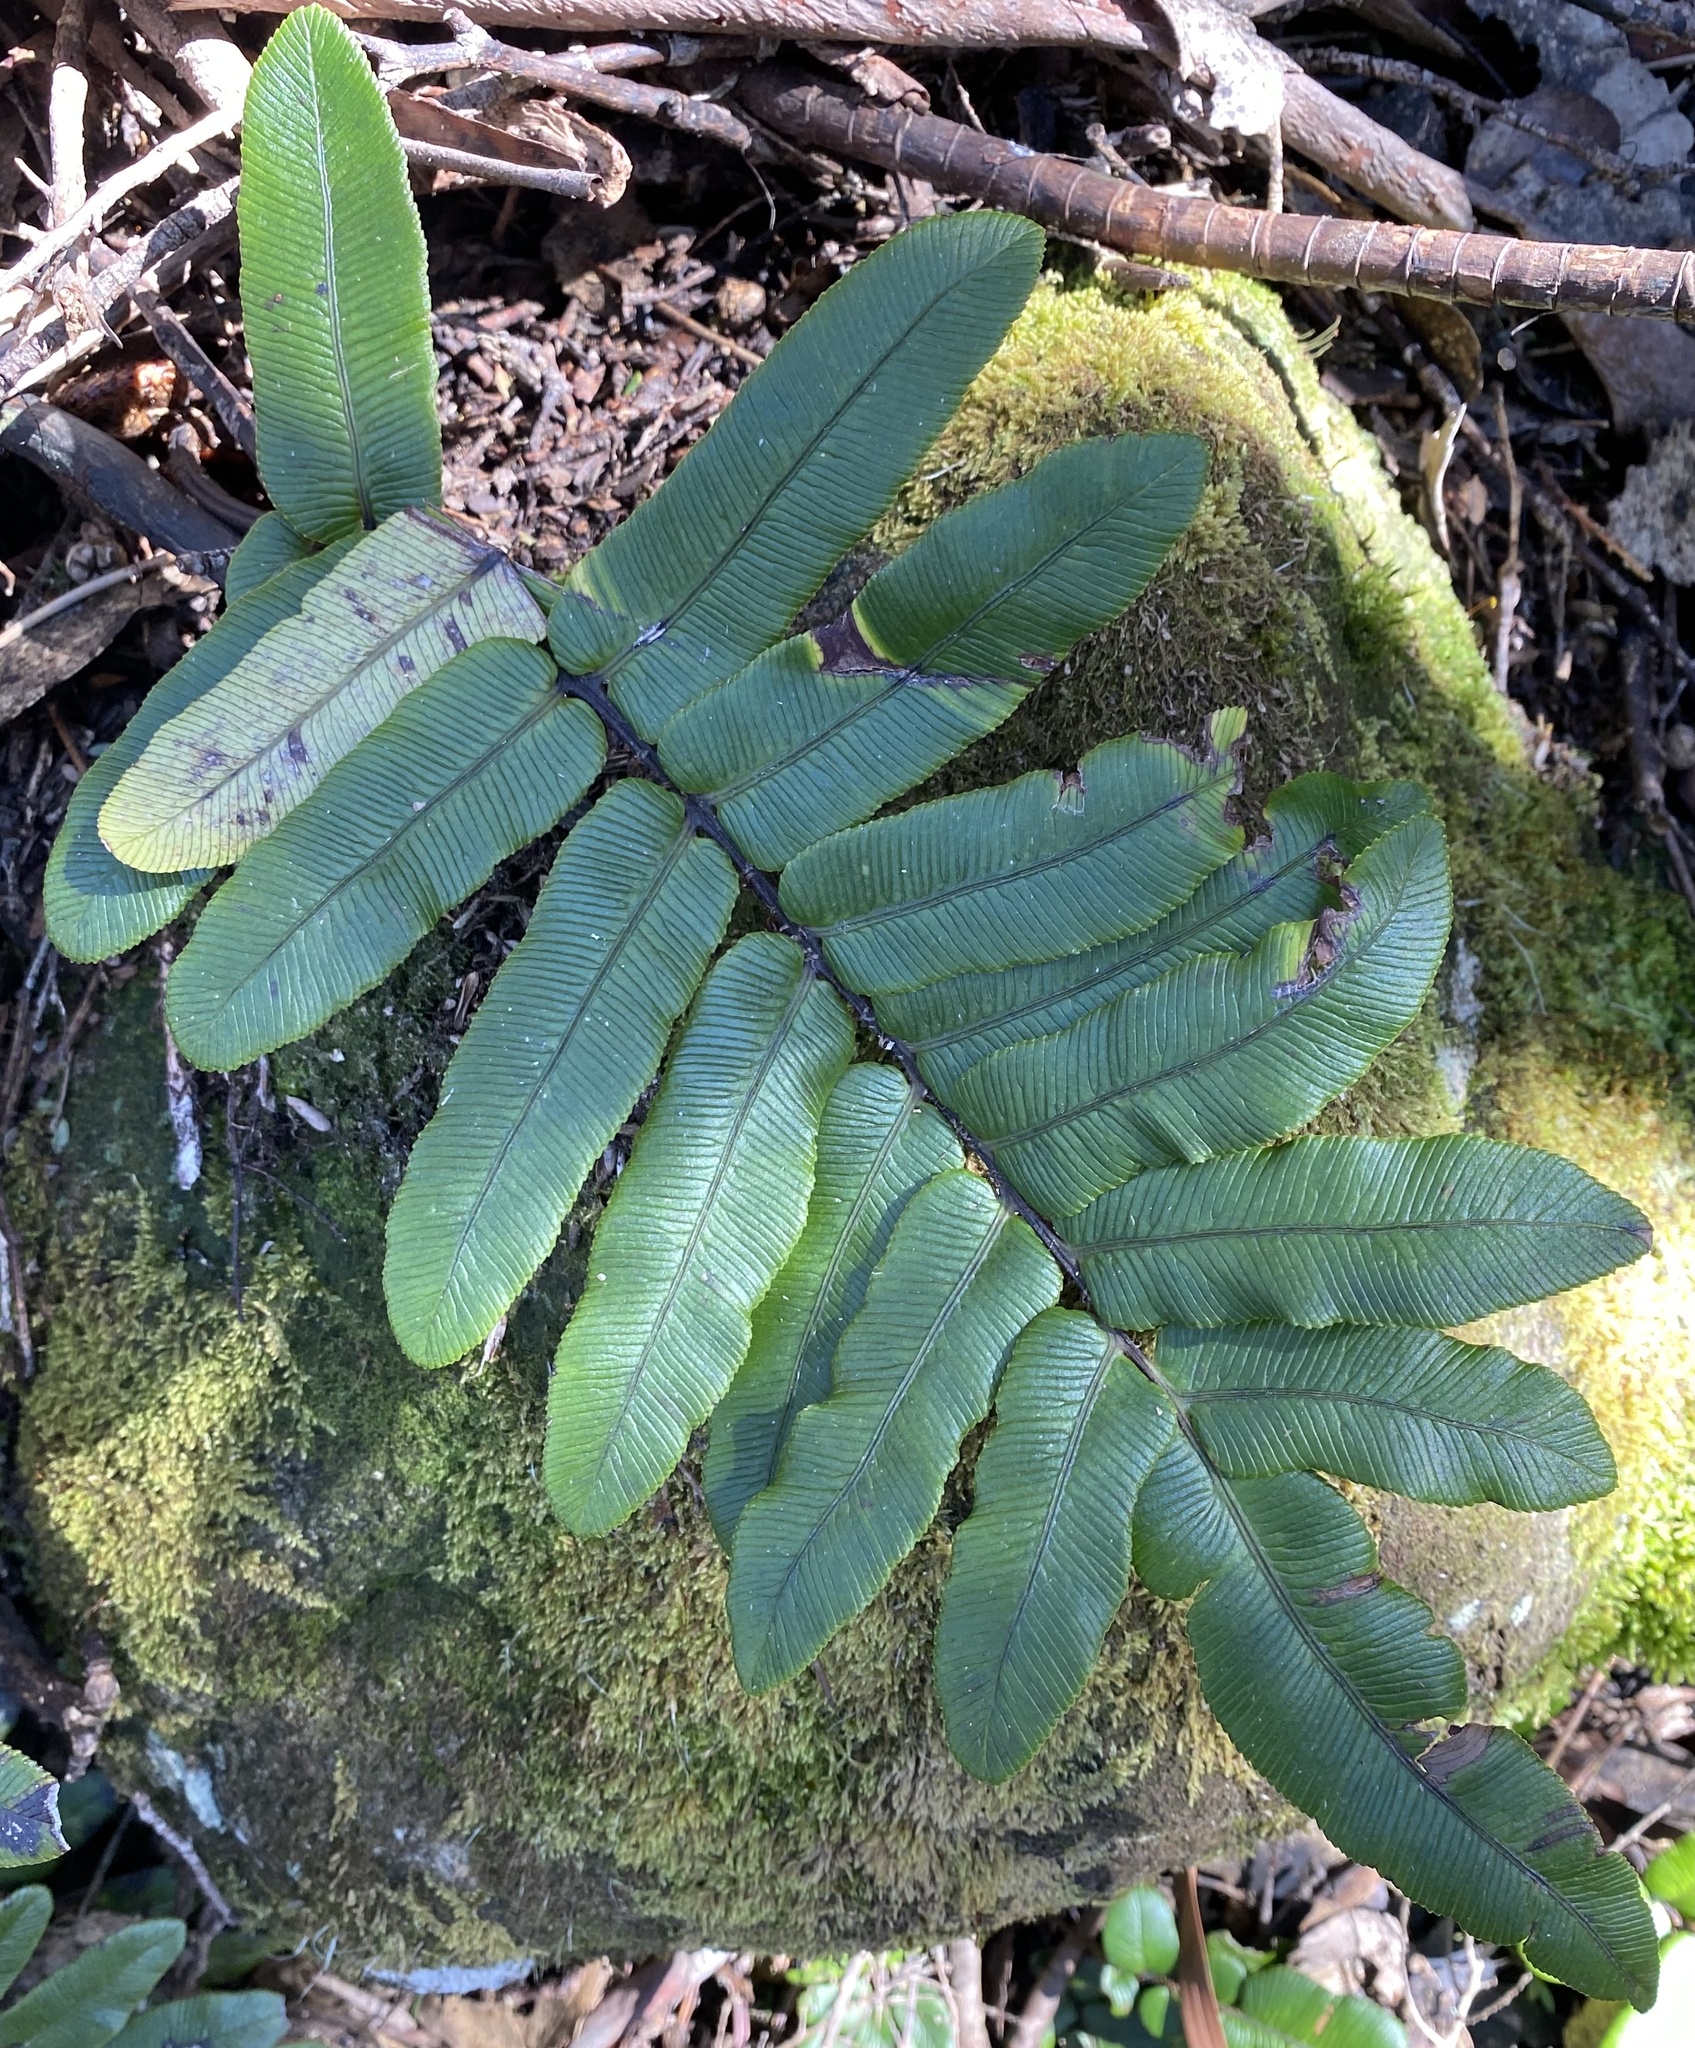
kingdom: Plantae
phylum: Tracheophyta
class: Polypodiopsida
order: Polypodiales
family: Blechnaceae
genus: Parablechnum
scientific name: Parablechnum wattsii
